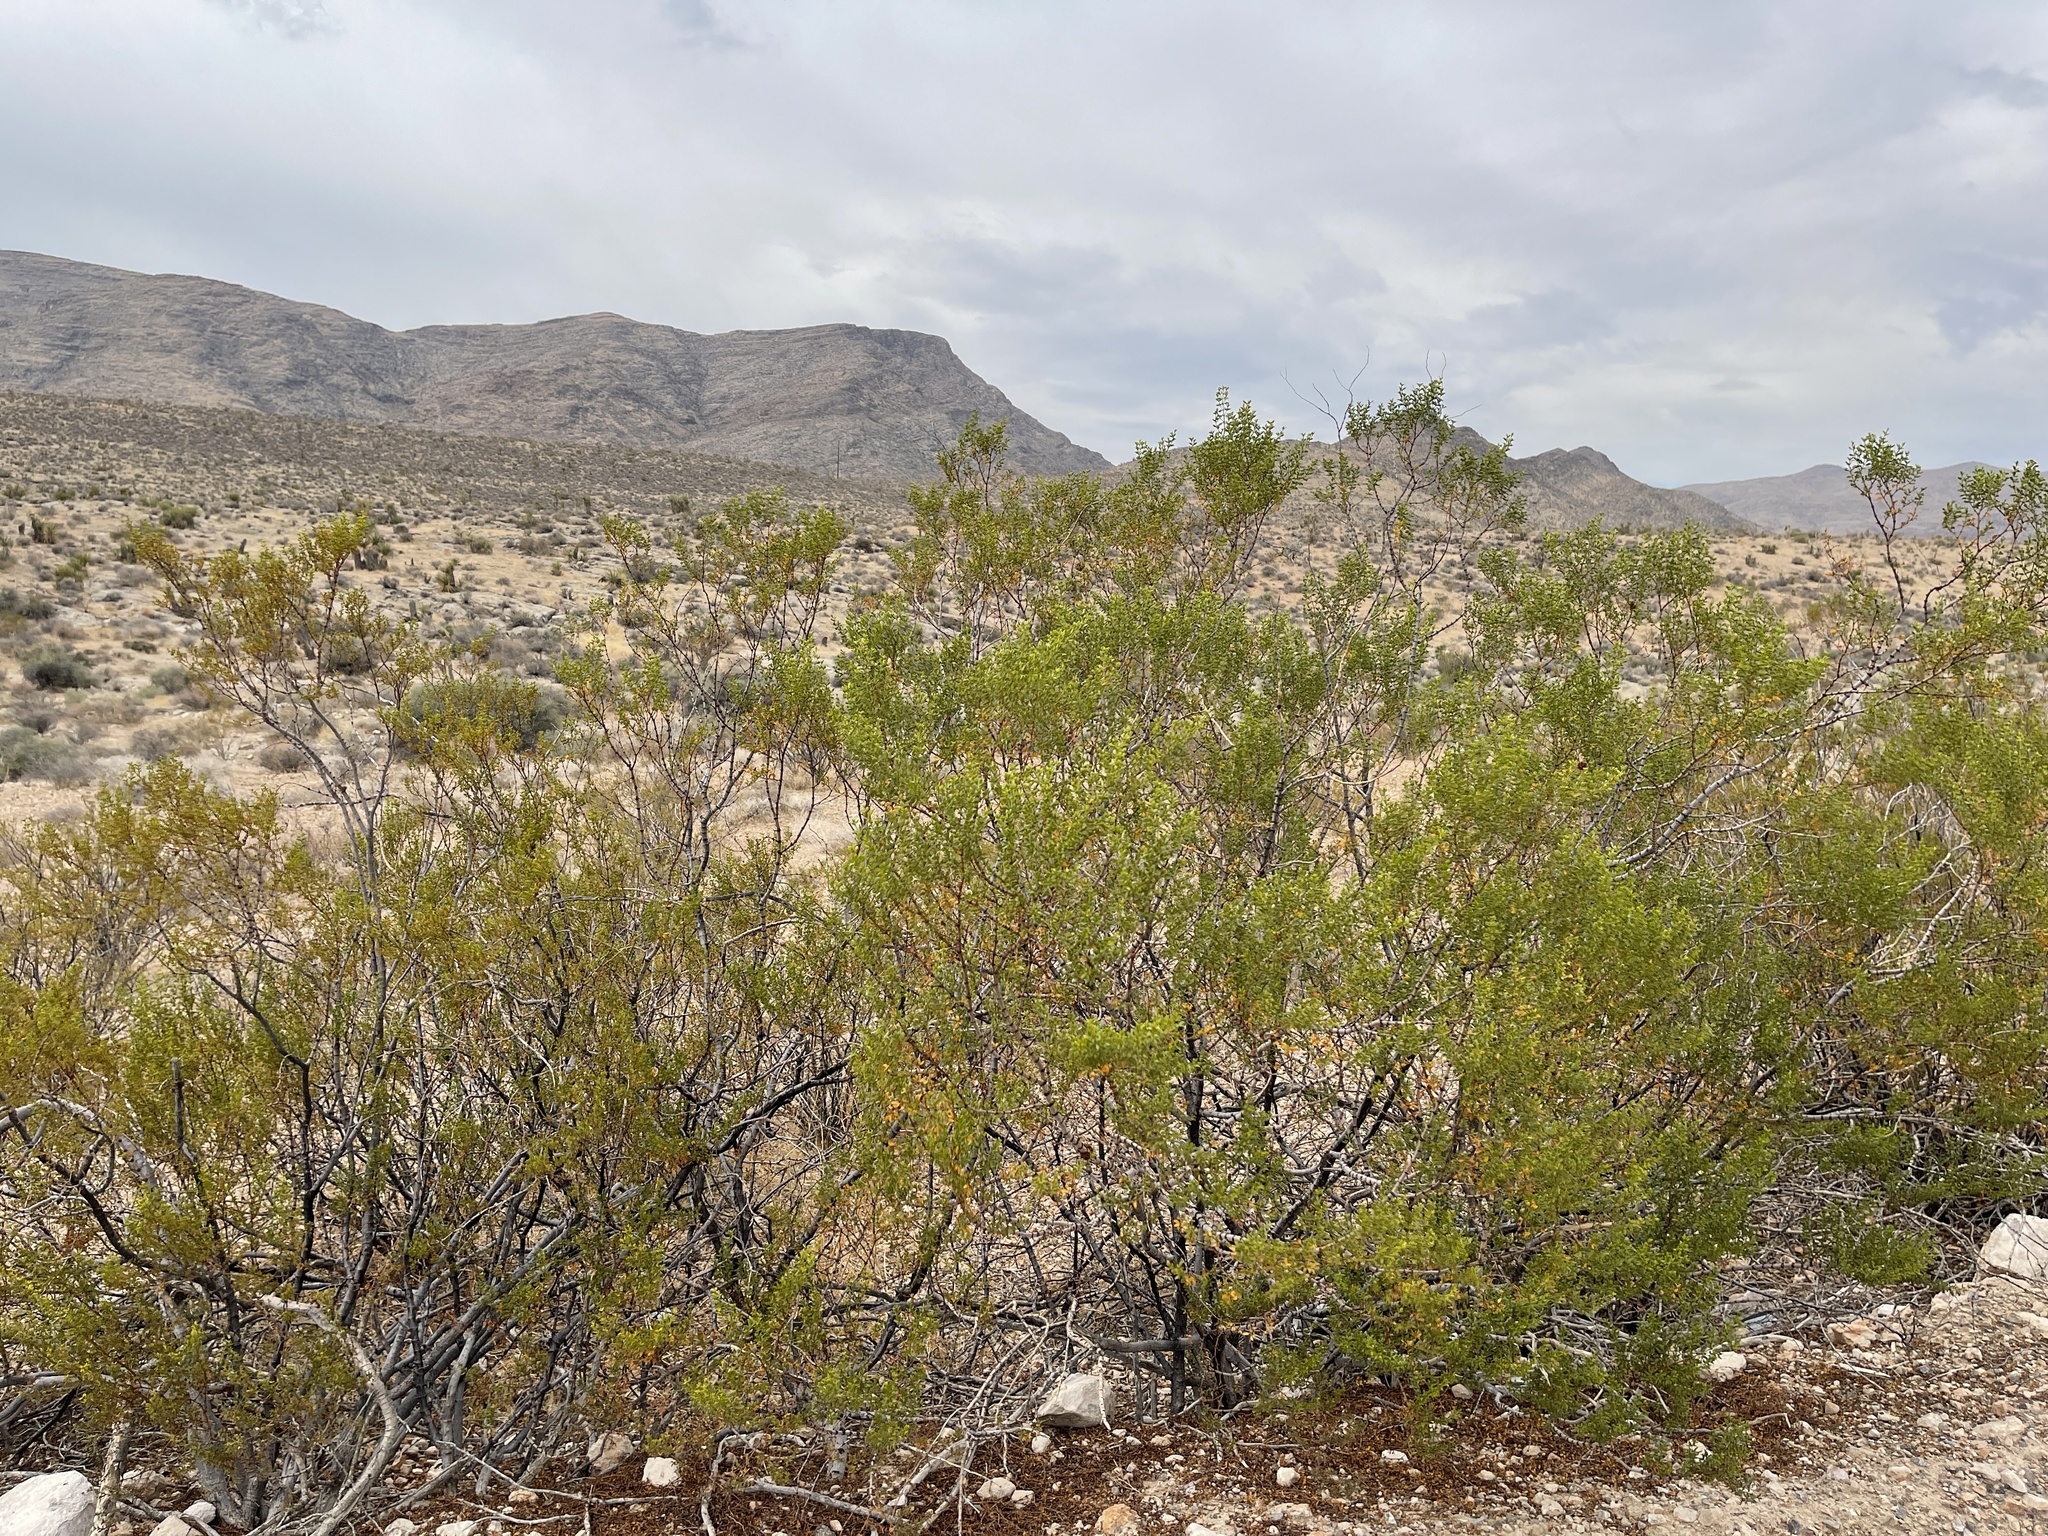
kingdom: Plantae
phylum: Tracheophyta
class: Magnoliopsida
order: Zygophyllales
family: Zygophyllaceae
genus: Larrea
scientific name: Larrea tridentata
